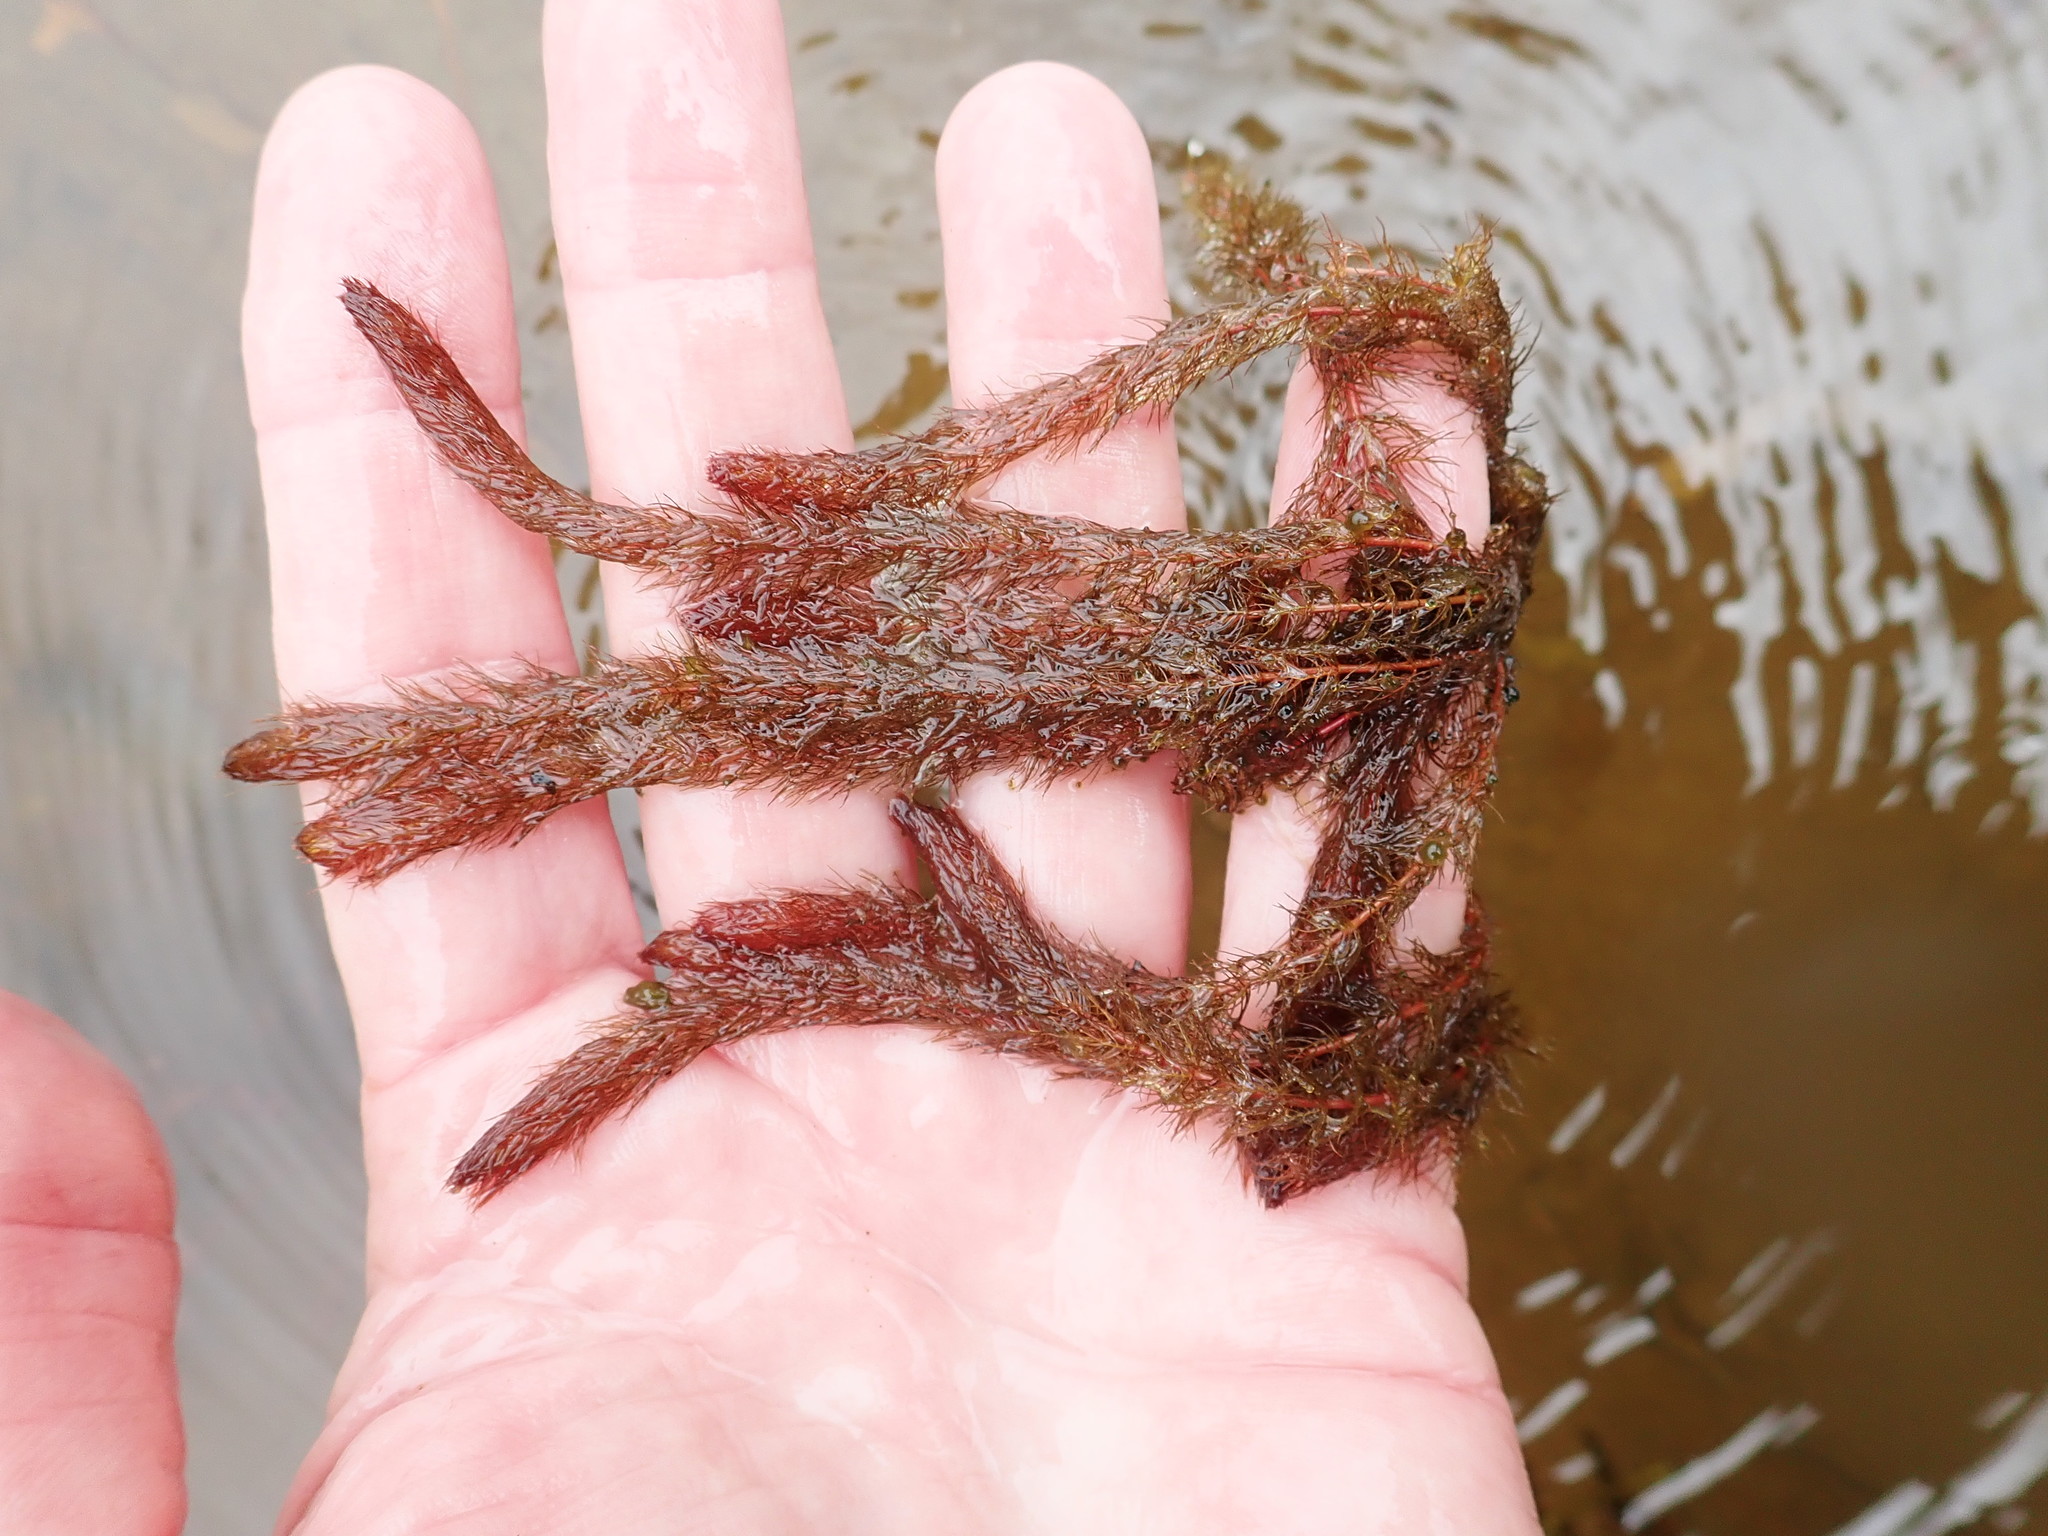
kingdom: Plantae
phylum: Tracheophyta
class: Magnoliopsida
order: Saxifragales
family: Haloragaceae
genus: Myriophyllum
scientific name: Myriophyllum alterniflorum
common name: Alternate water-milfoil
